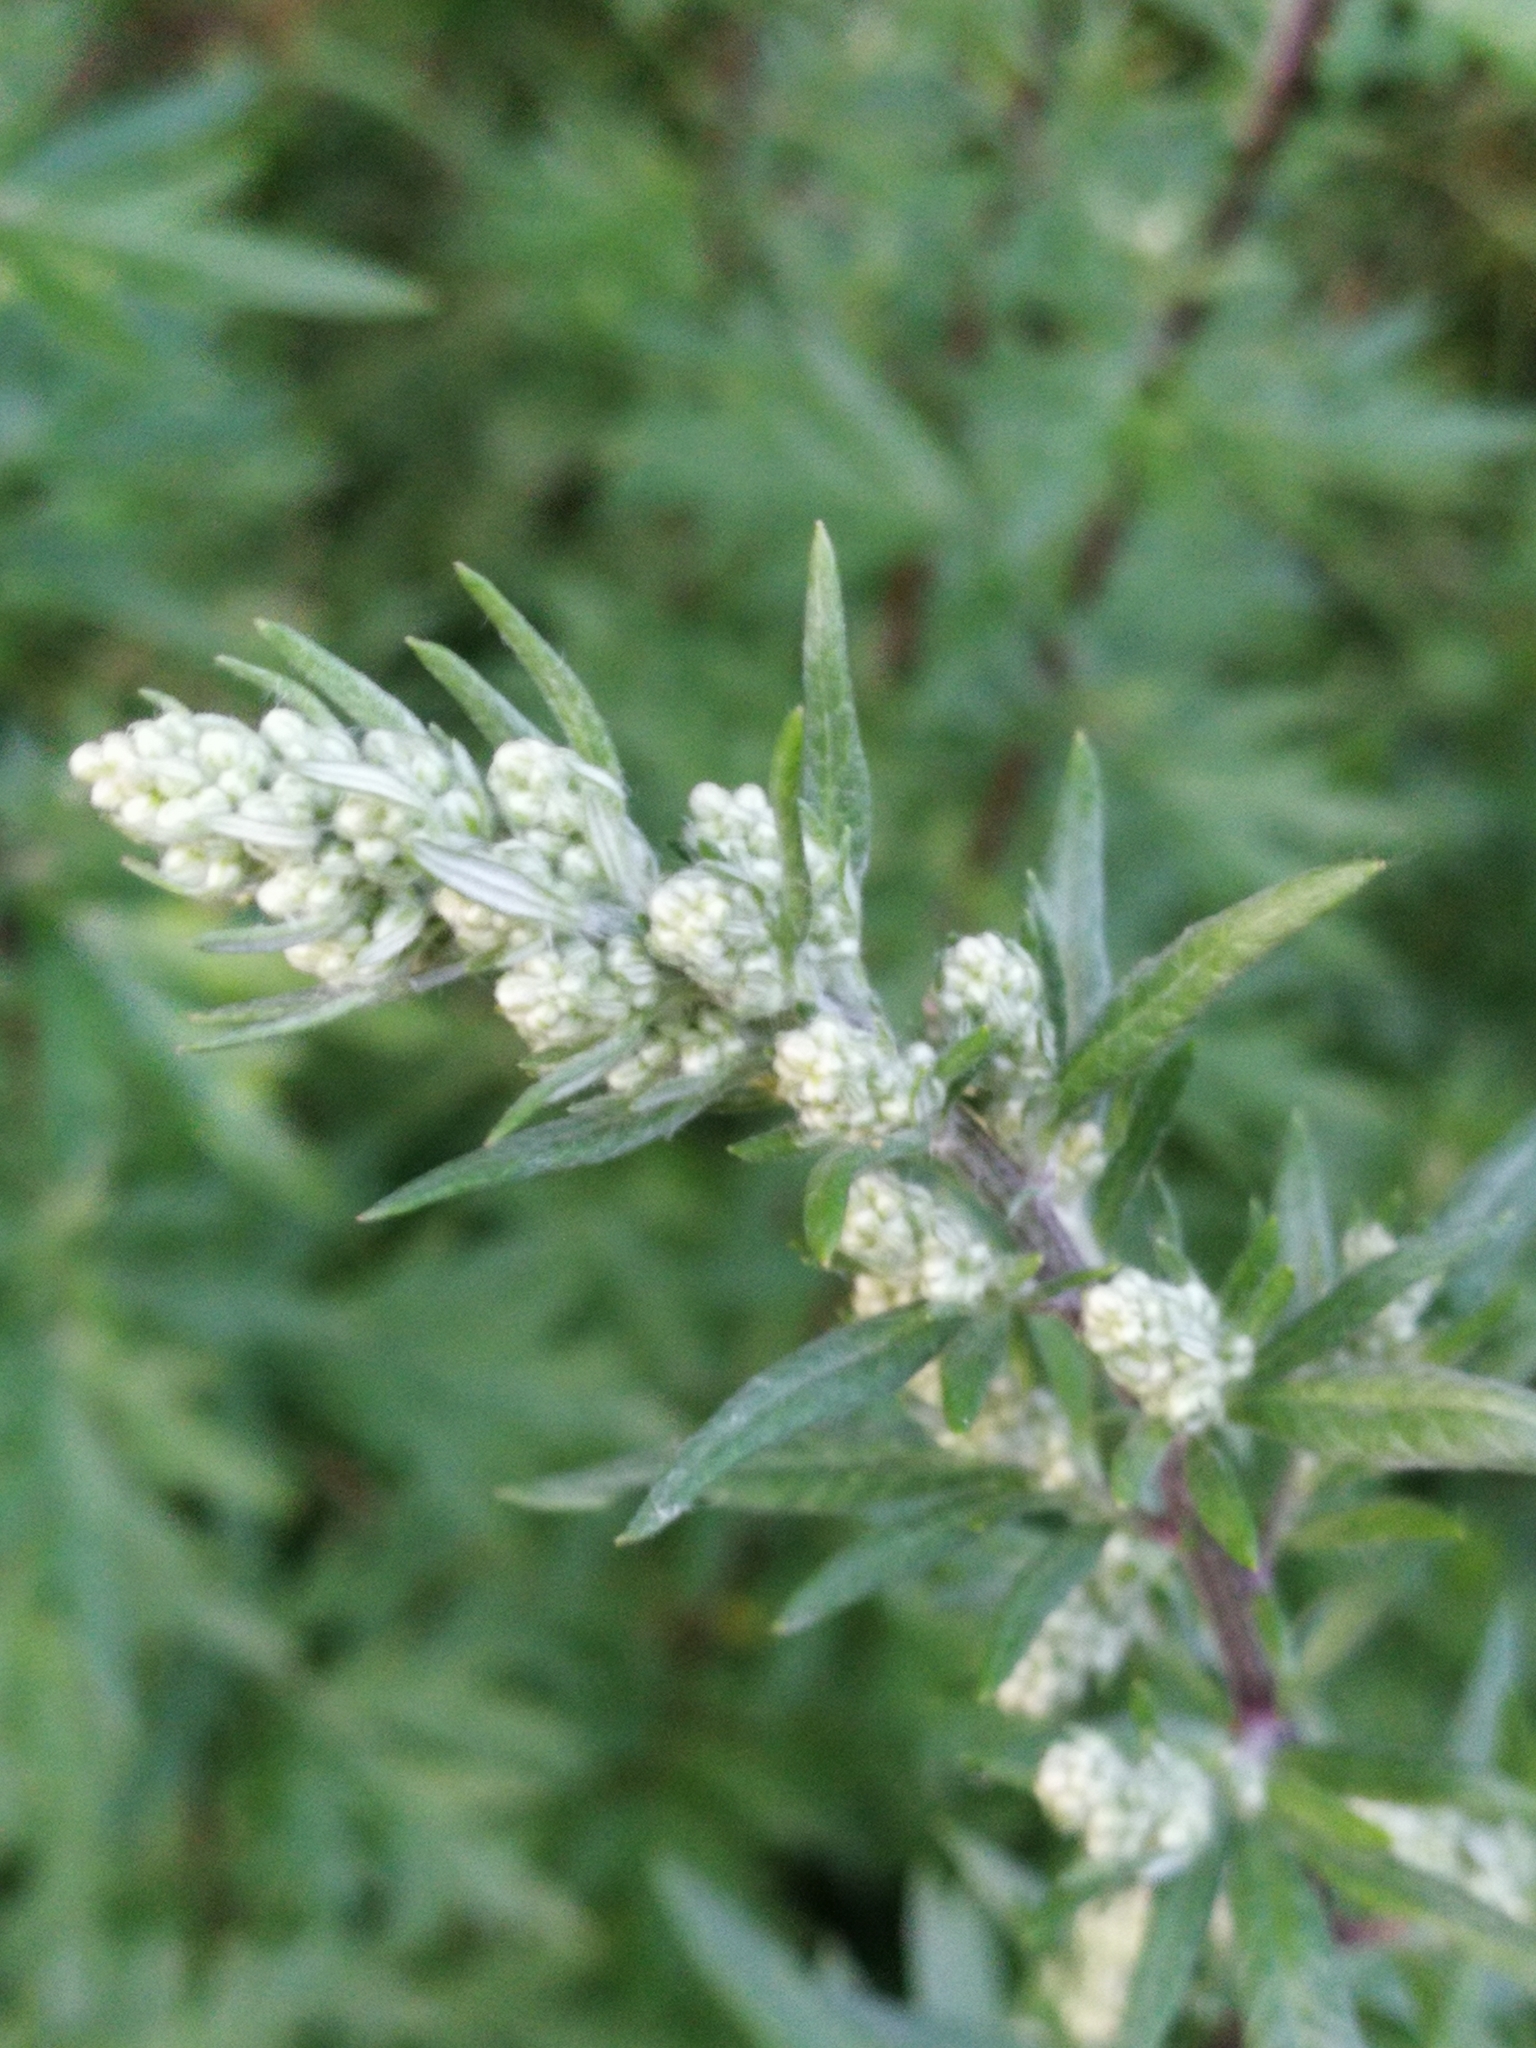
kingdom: Plantae
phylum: Tracheophyta
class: Magnoliopsida
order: Asterales
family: Asteraceae
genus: Artemisia
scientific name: Artemisia vulgaris
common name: Mugwort
